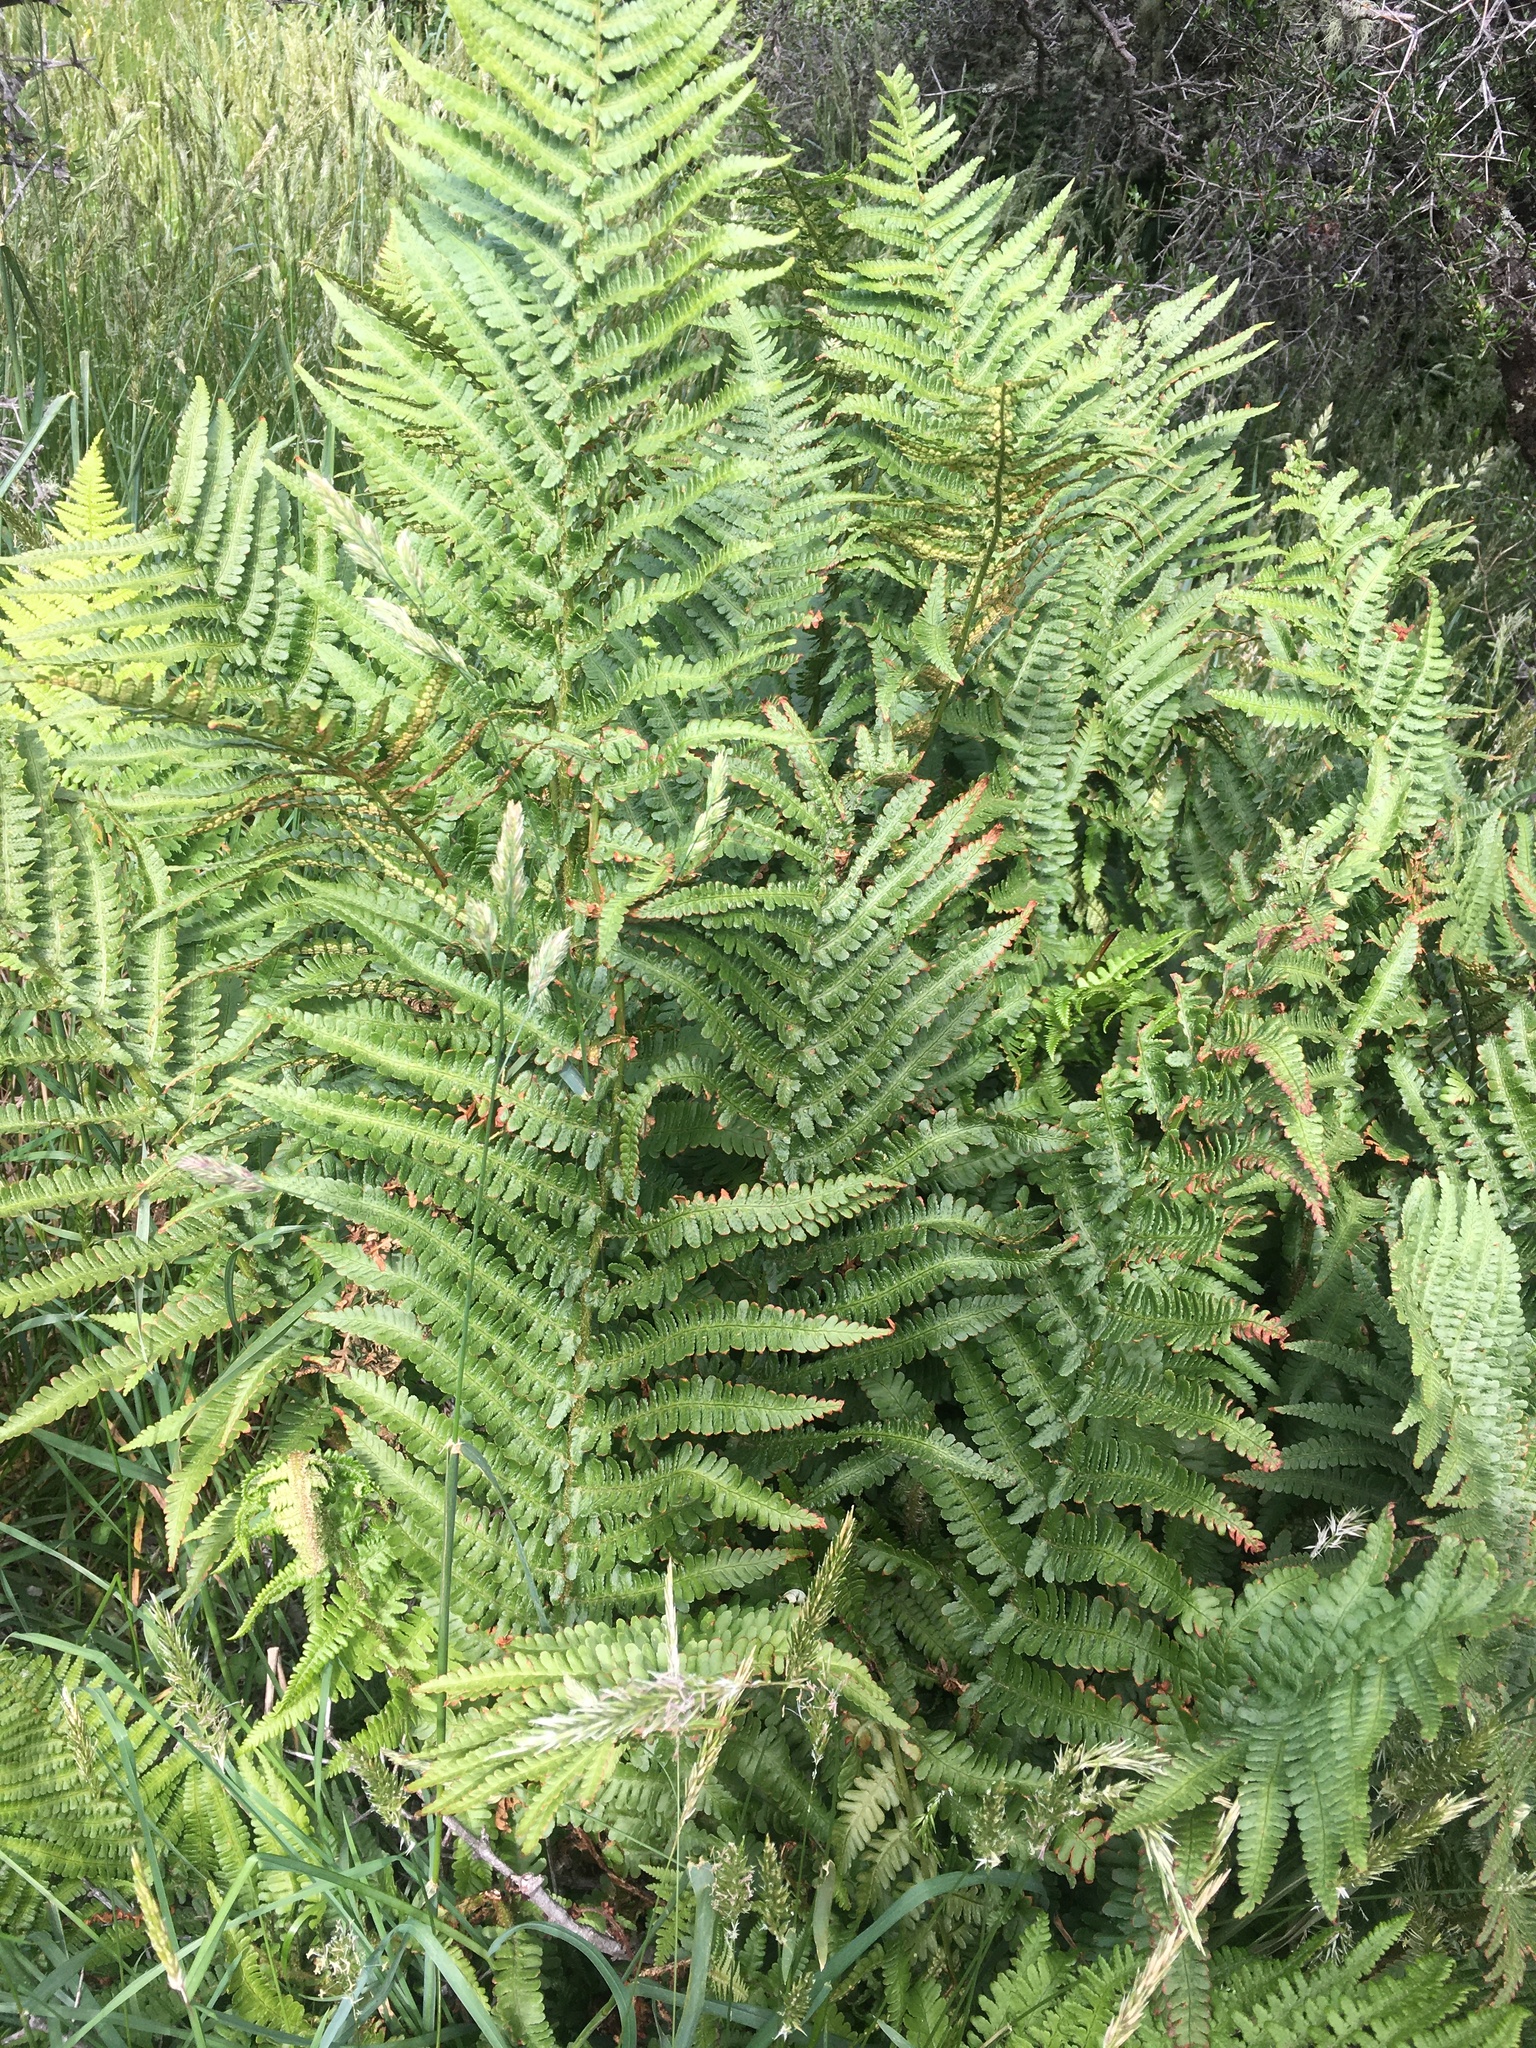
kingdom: Plantae
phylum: Tracheophyta
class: Polypodiopsida
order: Polypodiales
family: Dryopteridaceae
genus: Dryopteris
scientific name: Dryopteris filix-mas
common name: Male fern
